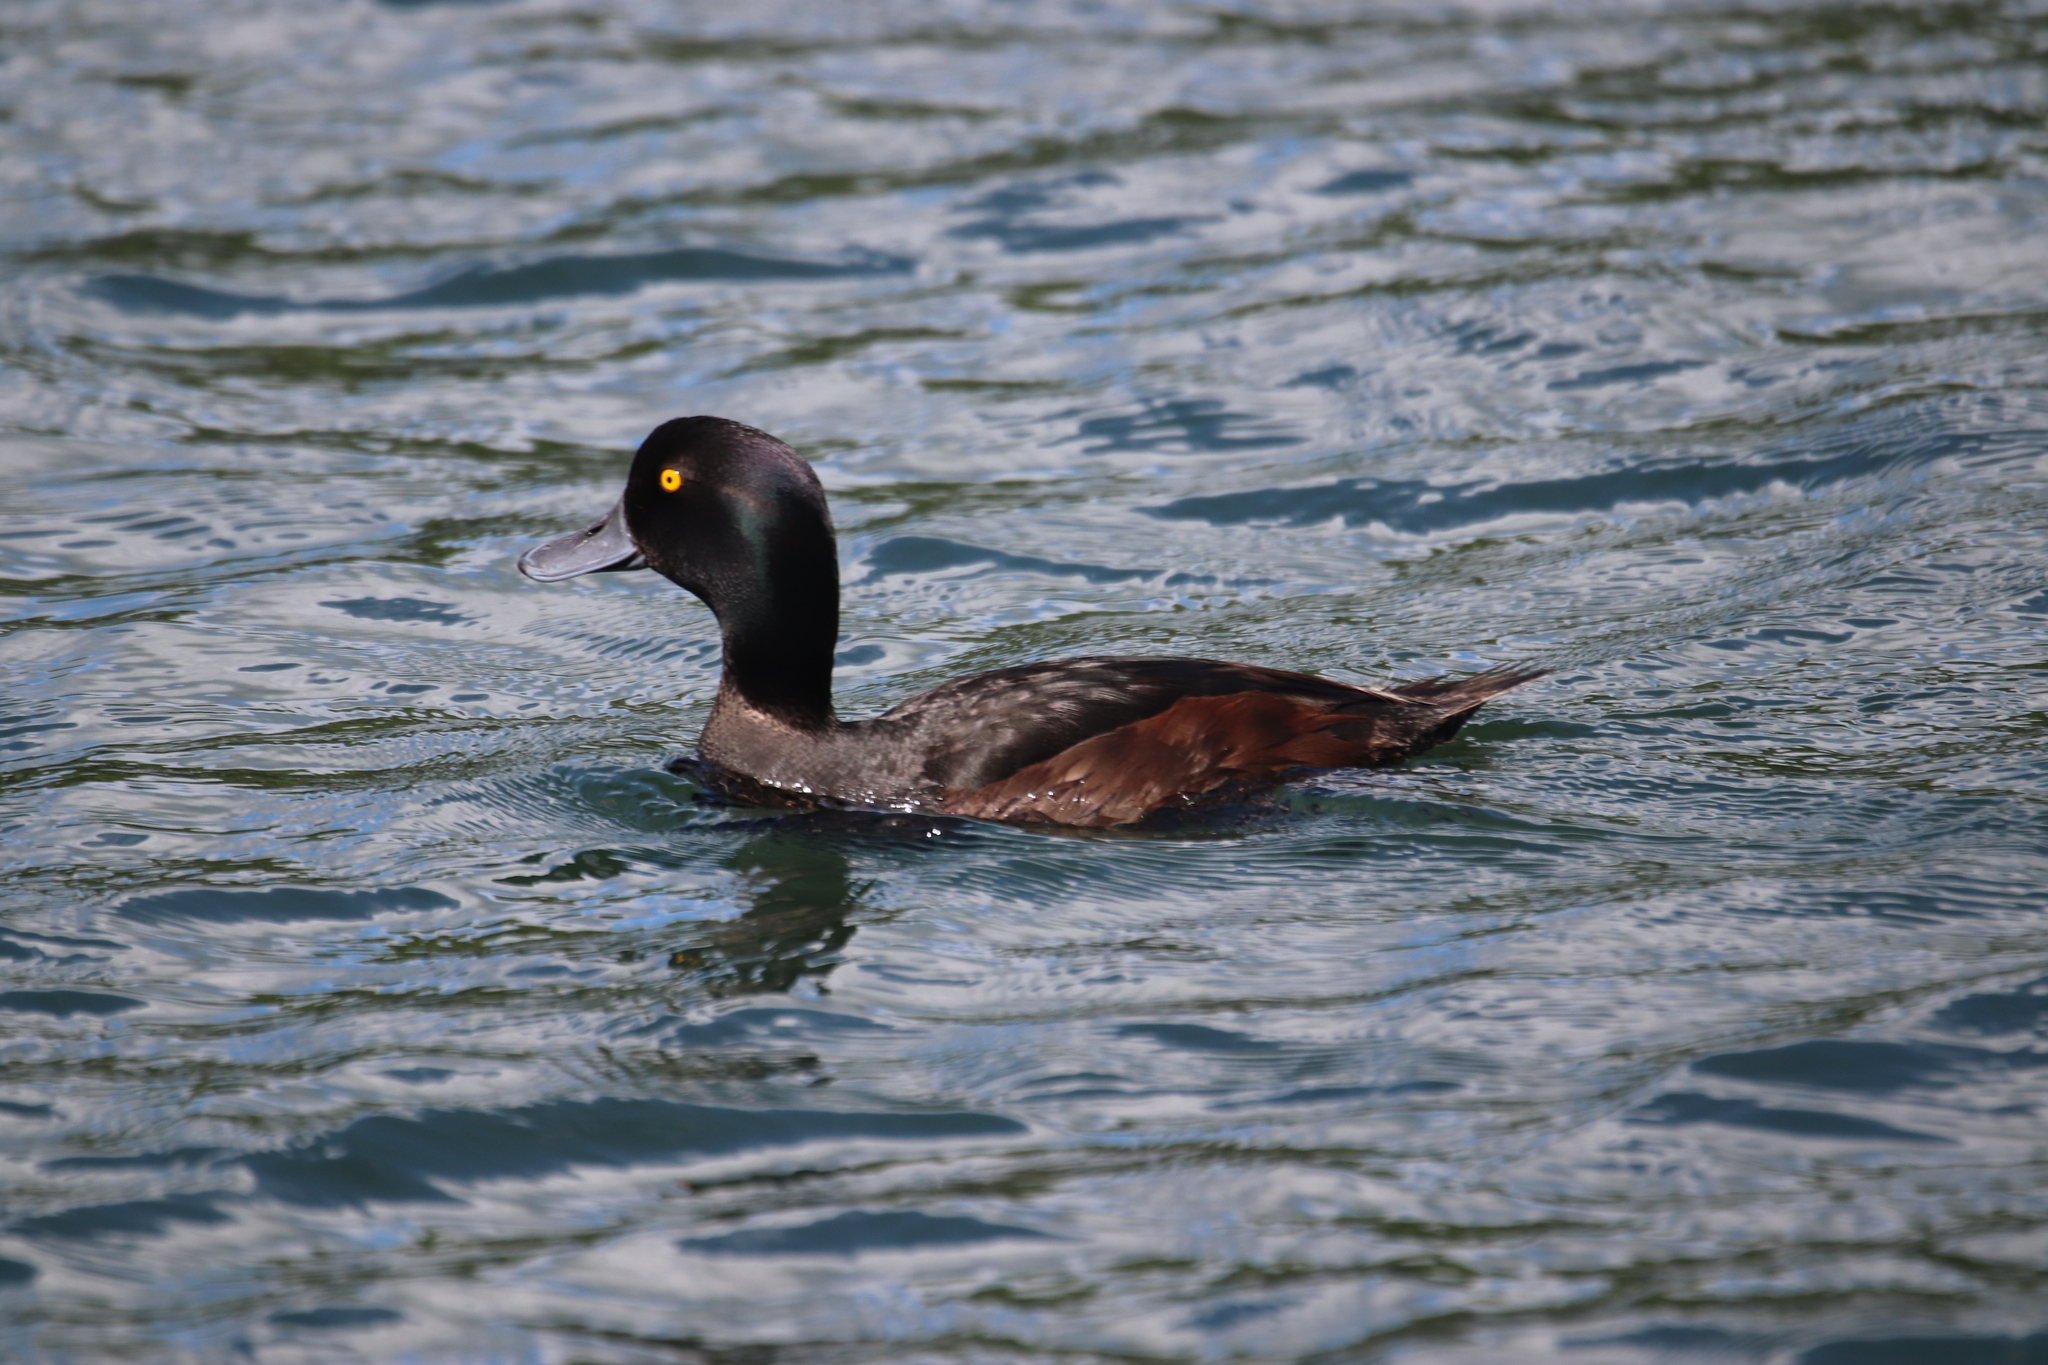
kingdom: Animalia
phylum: Chordata
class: Aves
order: Anseriformes
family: Anatidae
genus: Aythya
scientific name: Aythya novaeseelandiae
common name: New zealand scaup
